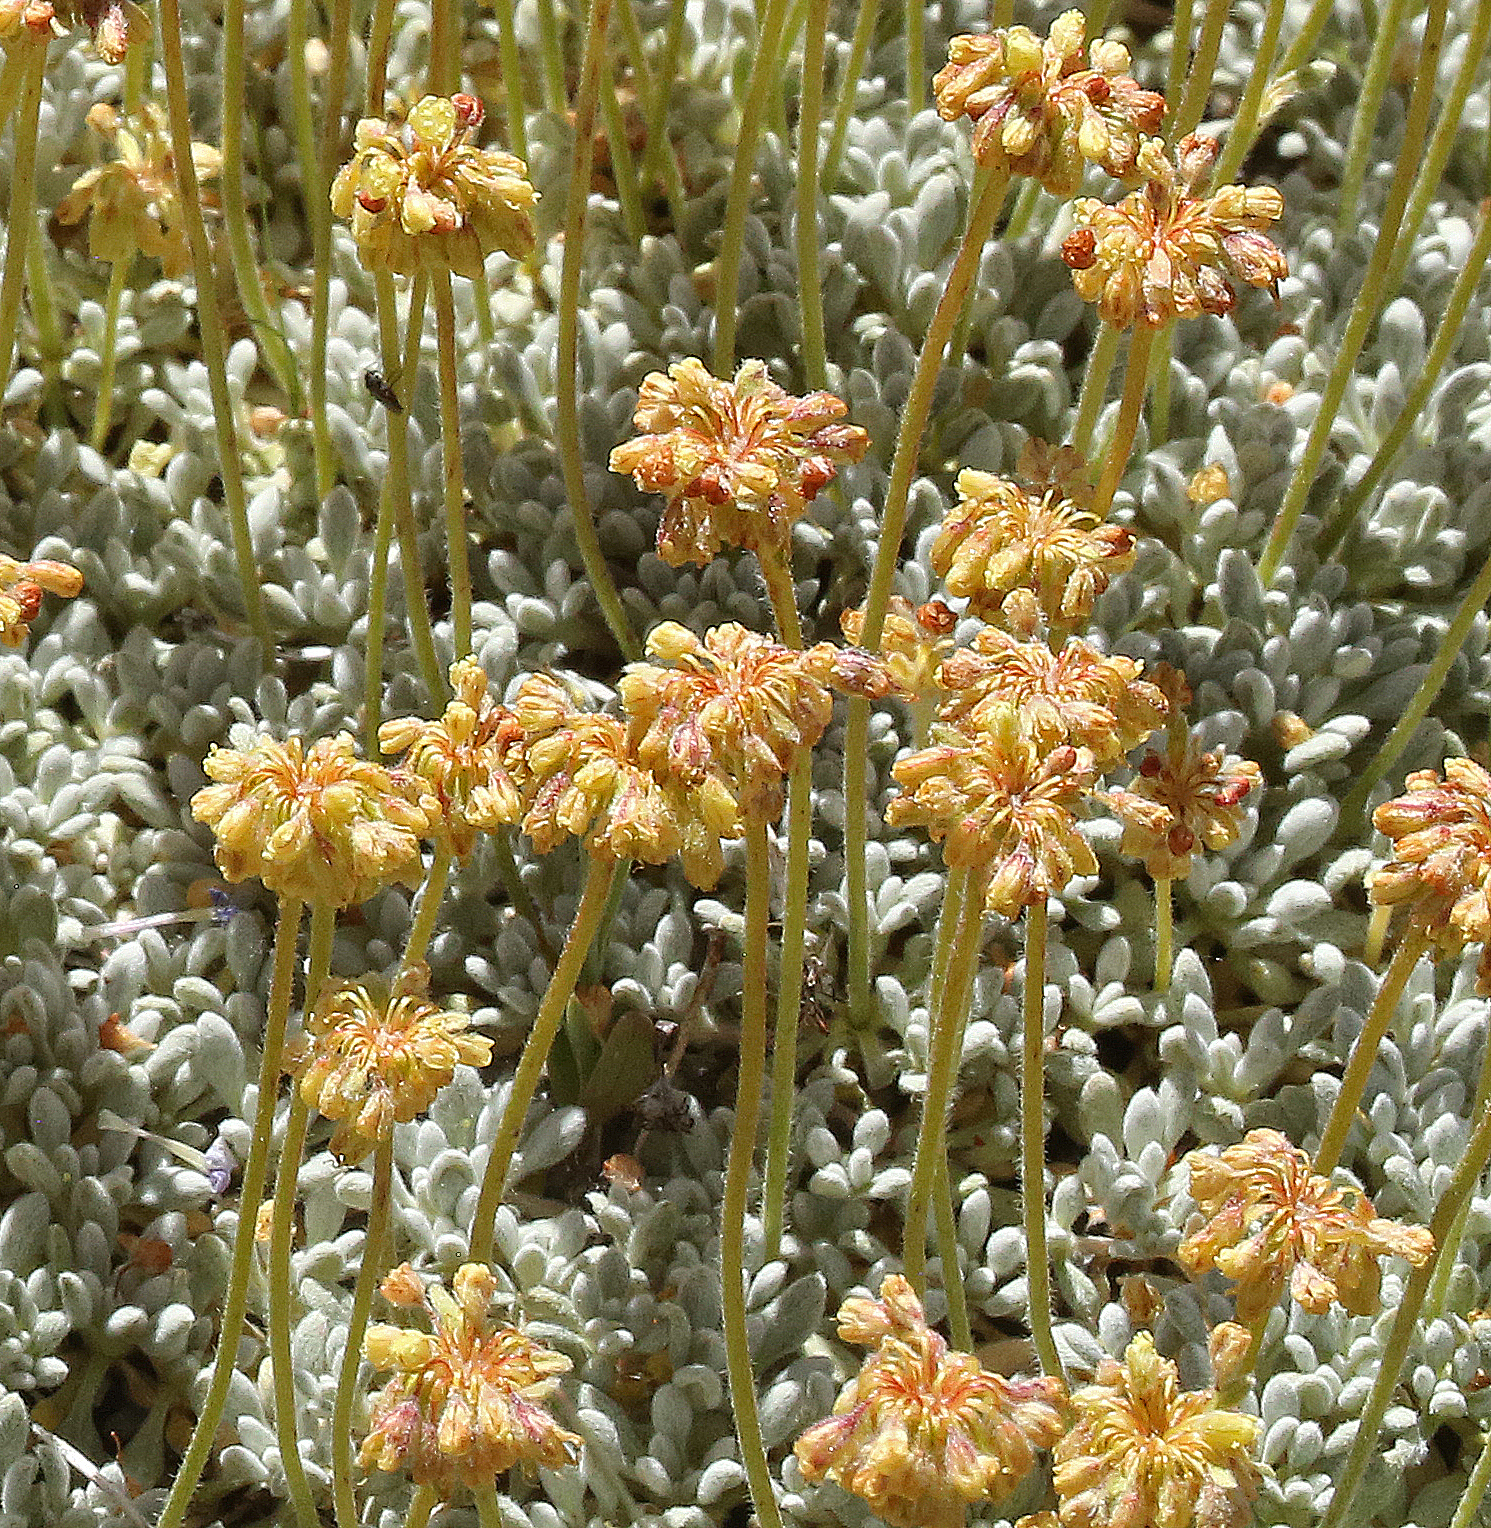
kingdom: Plantae
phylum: Tracheophyta
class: Magnoliopsida
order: Caryophyllales
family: Polygonaceae
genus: Eriogonum
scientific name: Eriogonum caespitosum
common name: Matted wild buckwheat
